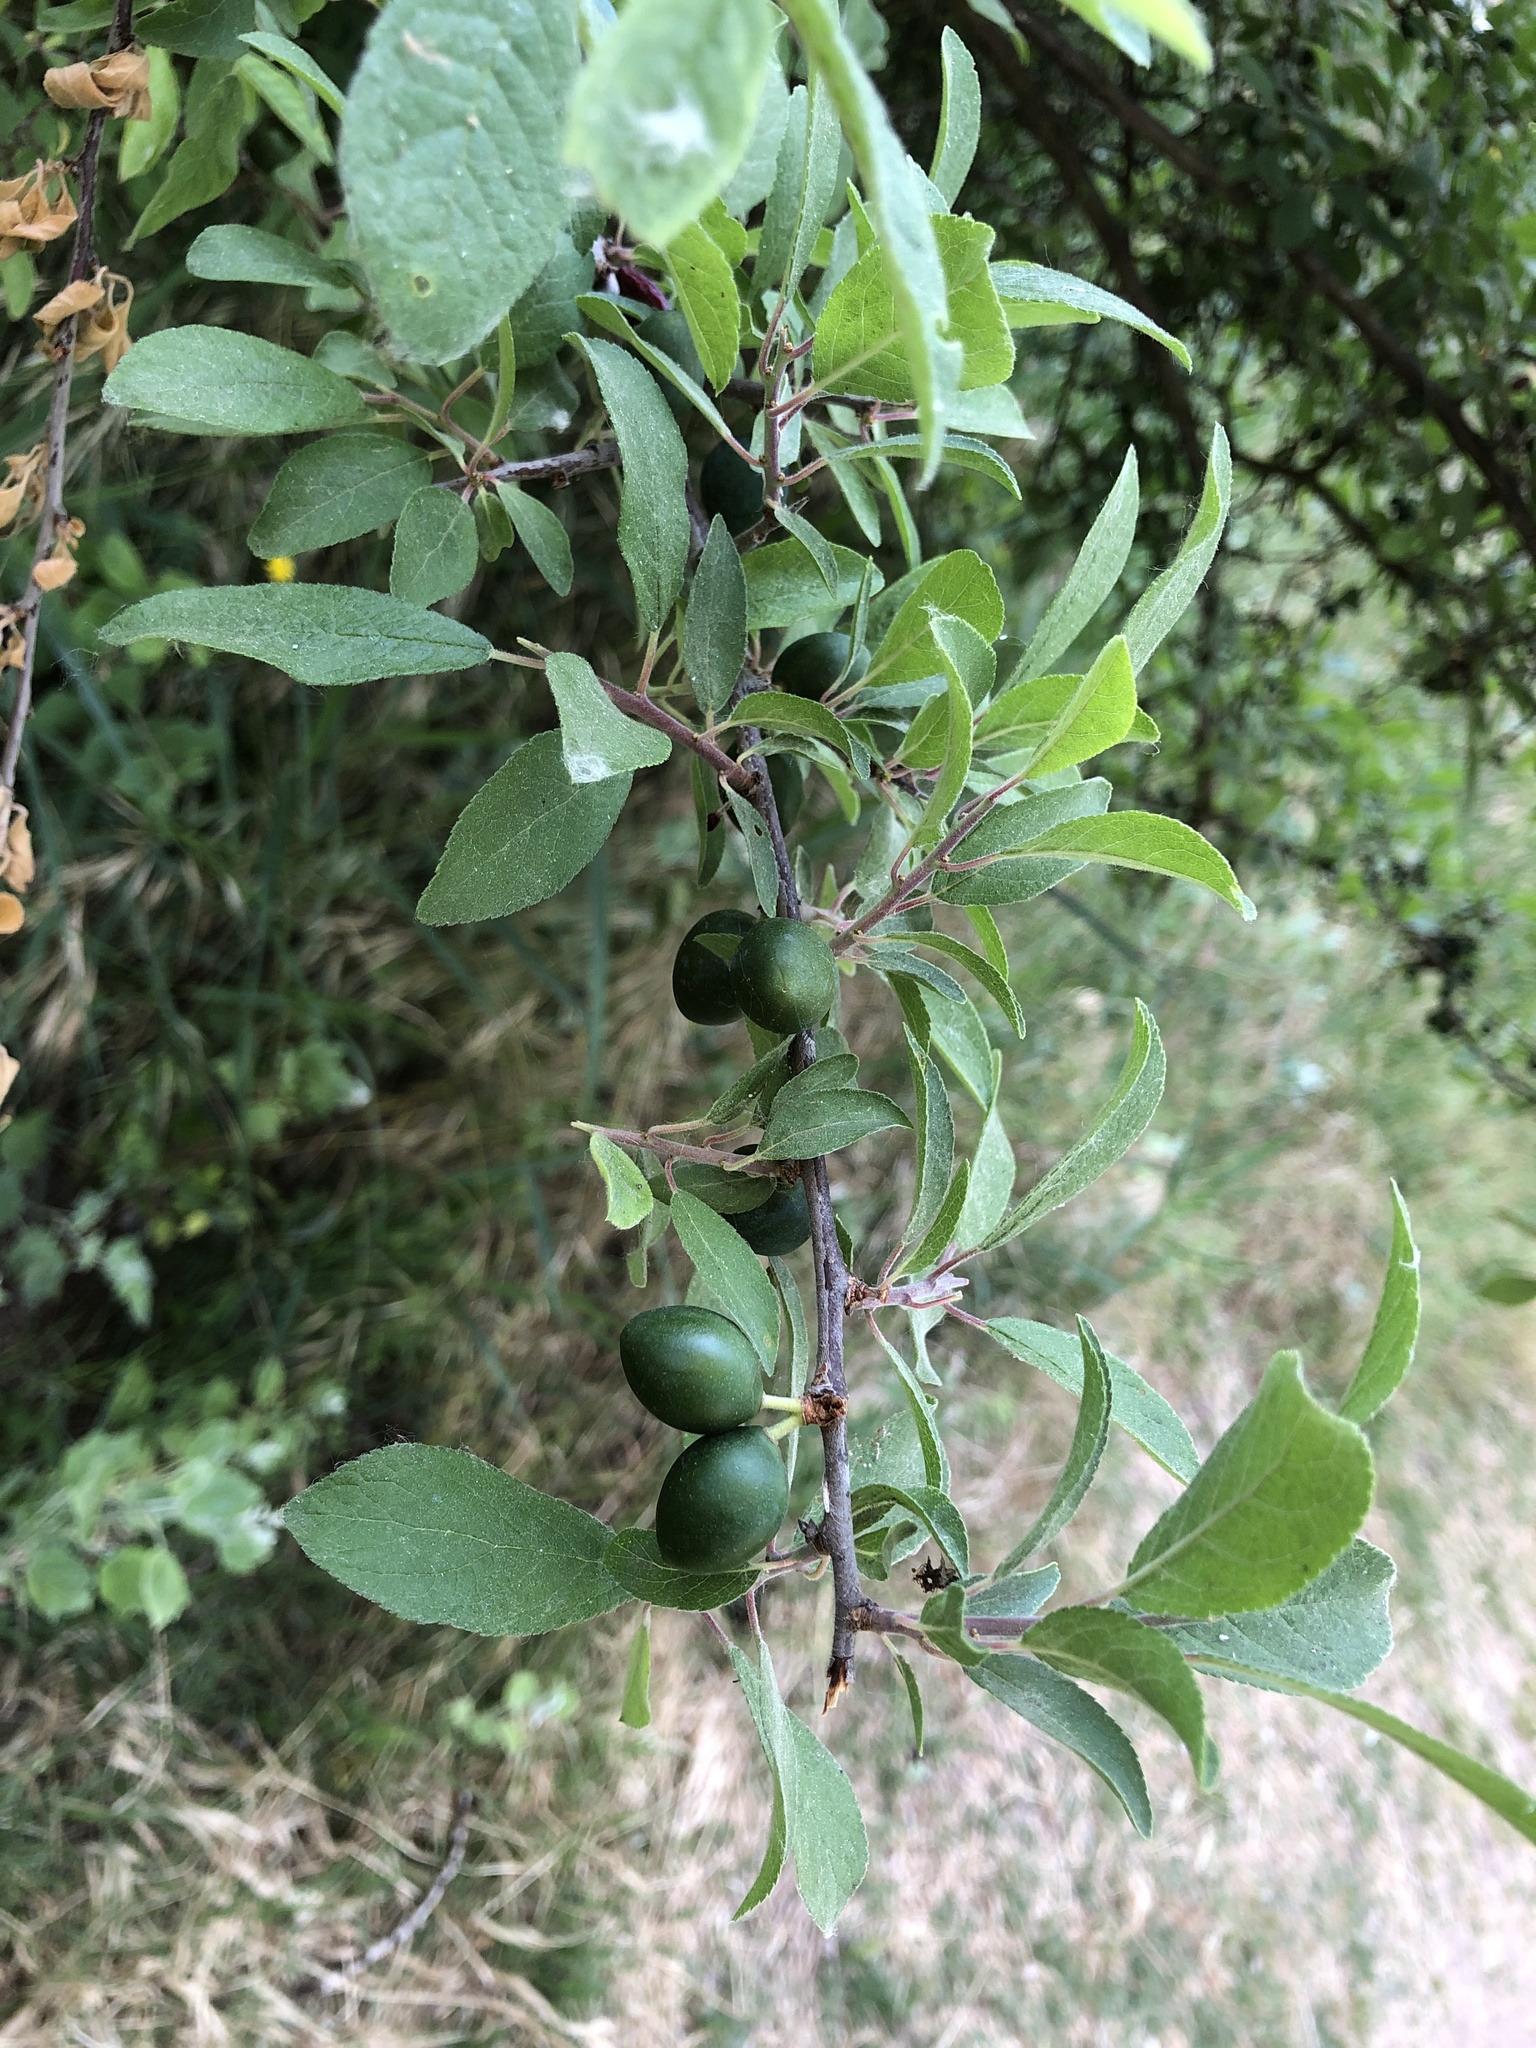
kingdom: Plantae
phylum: Tracheophyta
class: Magnoliopsida
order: Rosales
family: Rosaceae
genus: Prunus
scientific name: Prunus
